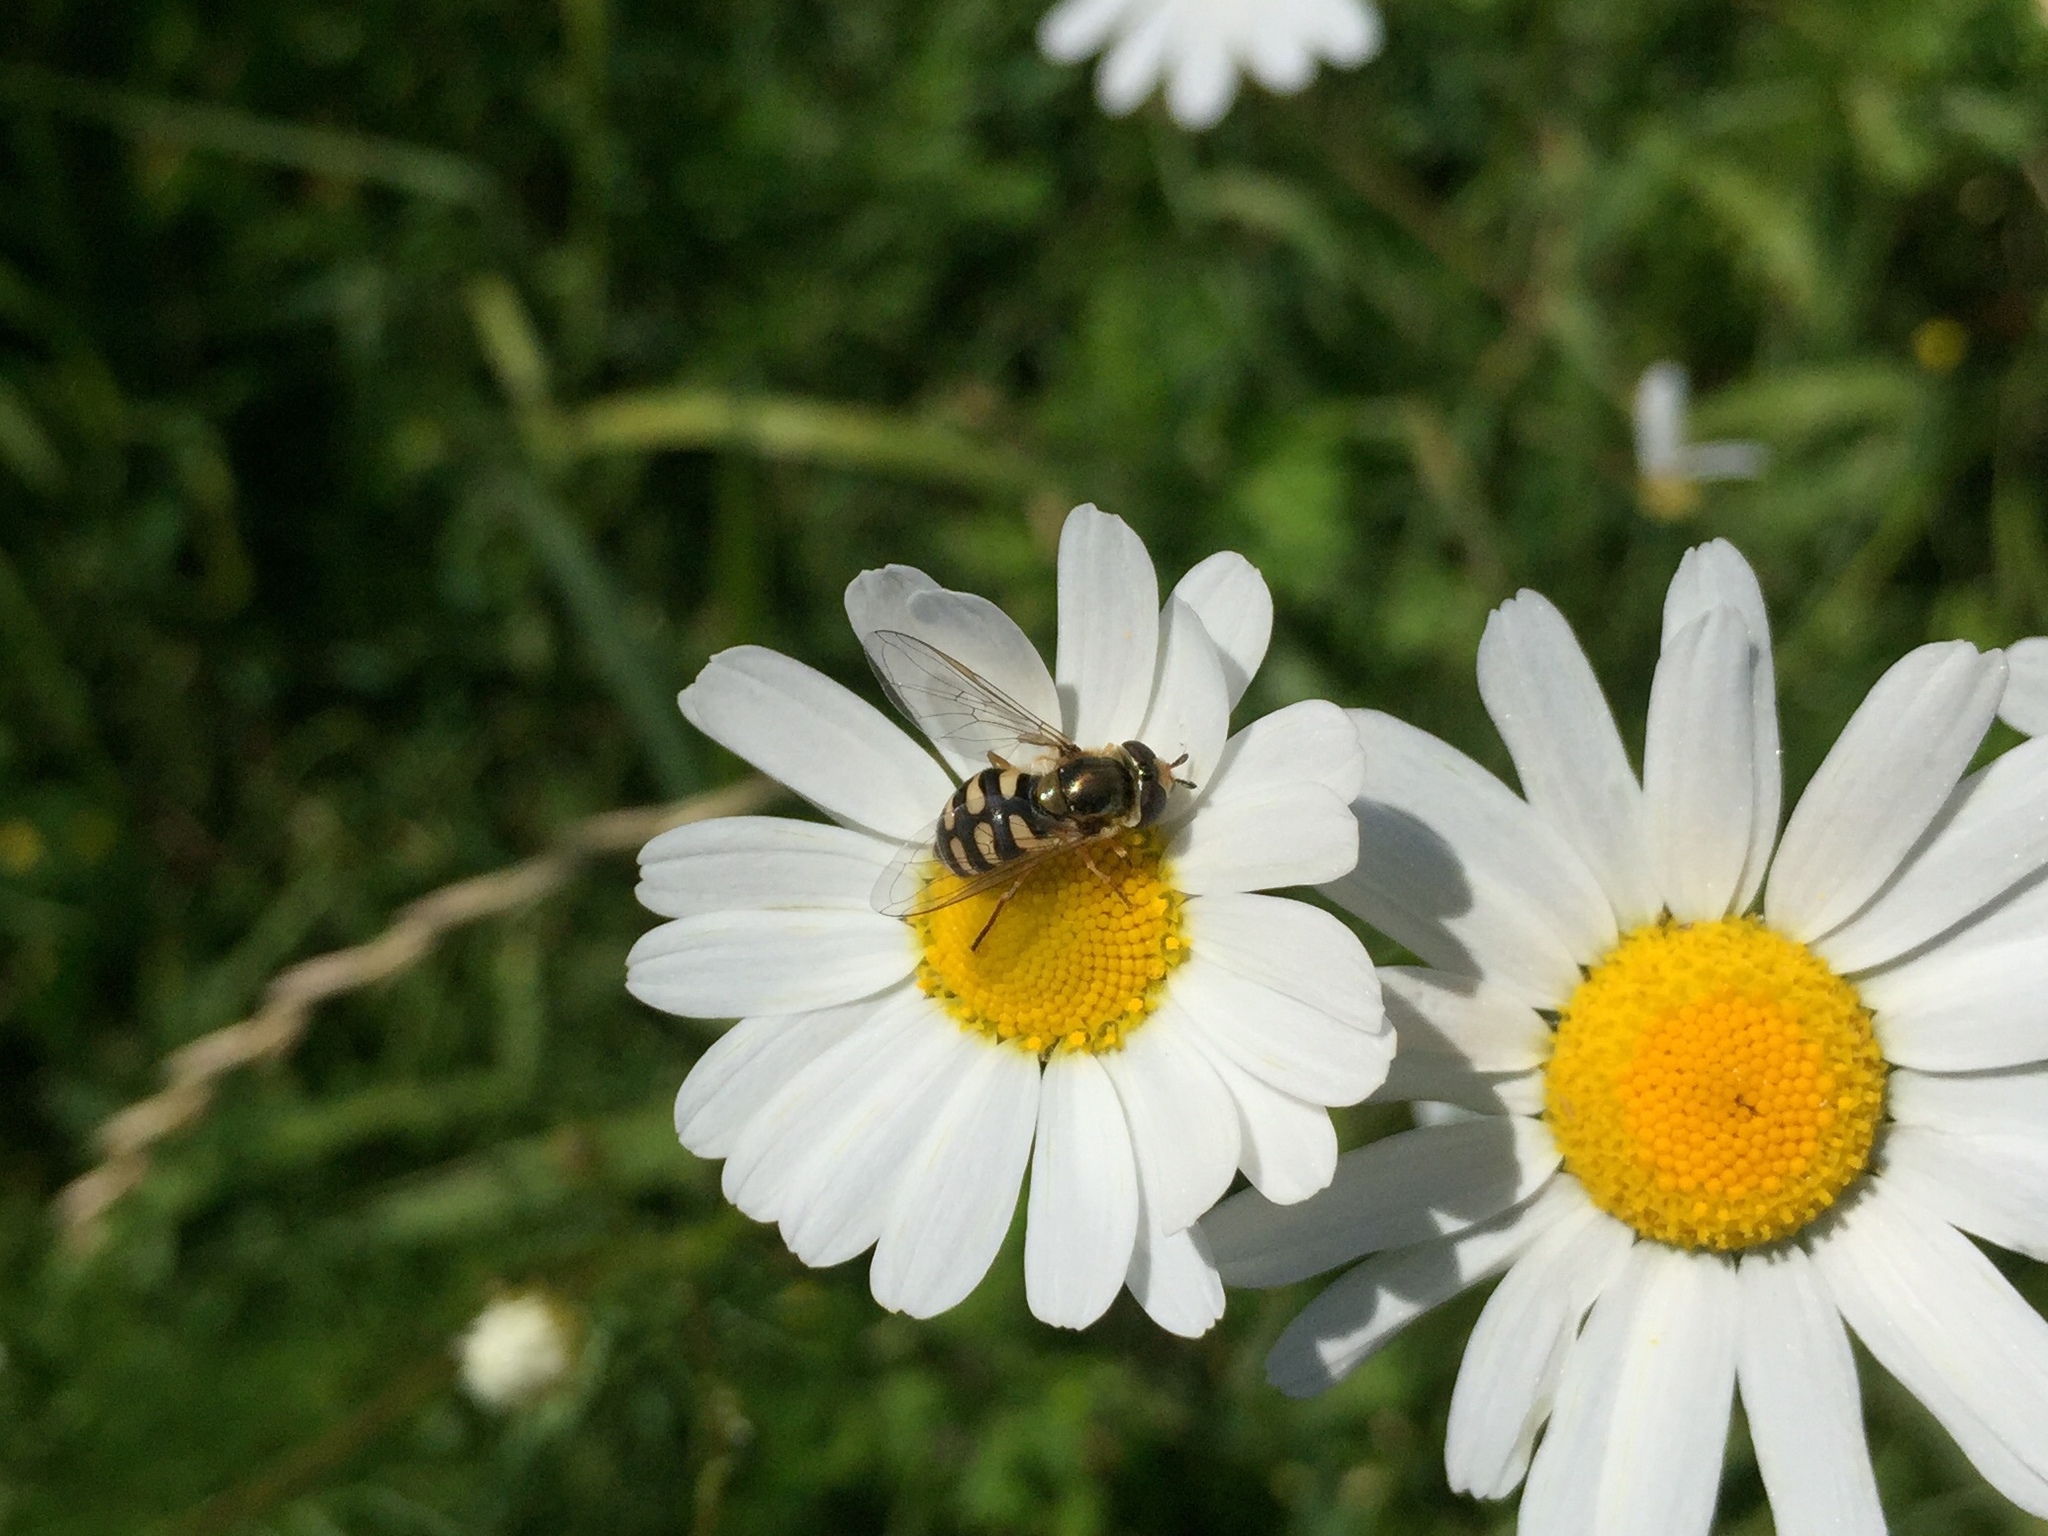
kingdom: Animalia
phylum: Arthropoda
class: Insecta
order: Diptera
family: Syrphidae
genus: Eupeodes
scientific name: Eupeodes corollae
